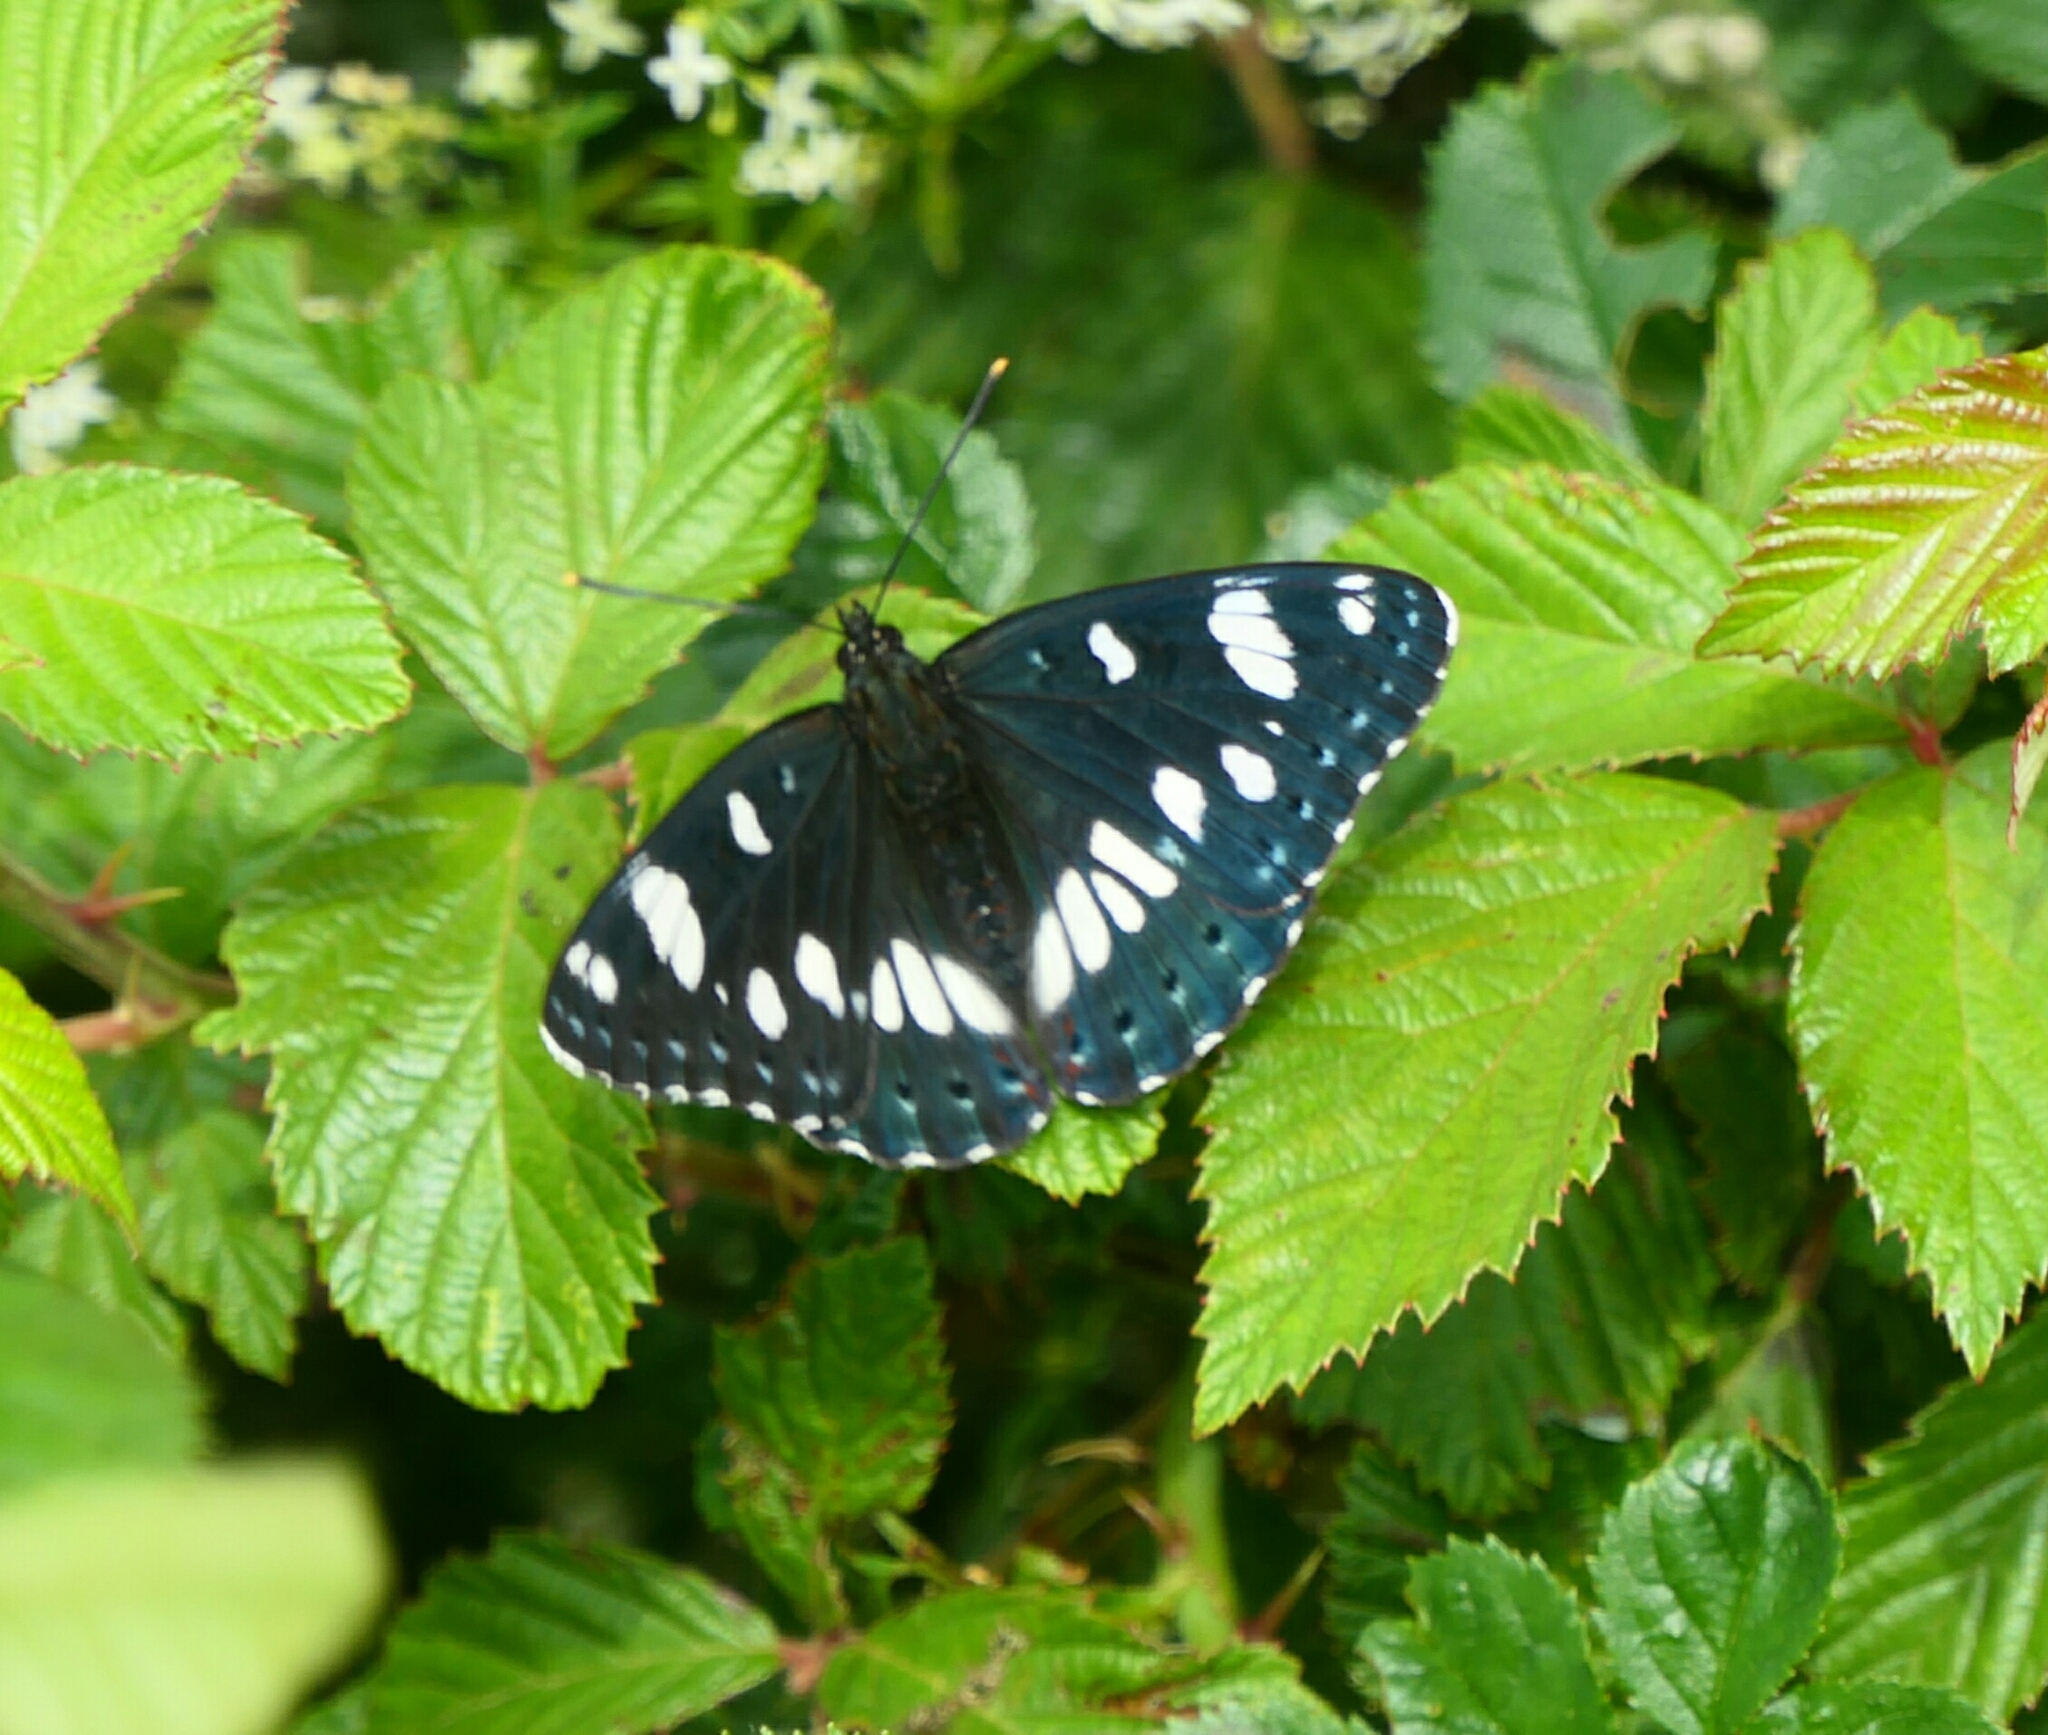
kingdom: Animalia
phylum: Arthropoda
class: Insecta
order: Lepidoptera
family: Nymphalidae
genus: Limenitis
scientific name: Limenitis reducta
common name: Southern white admiral
